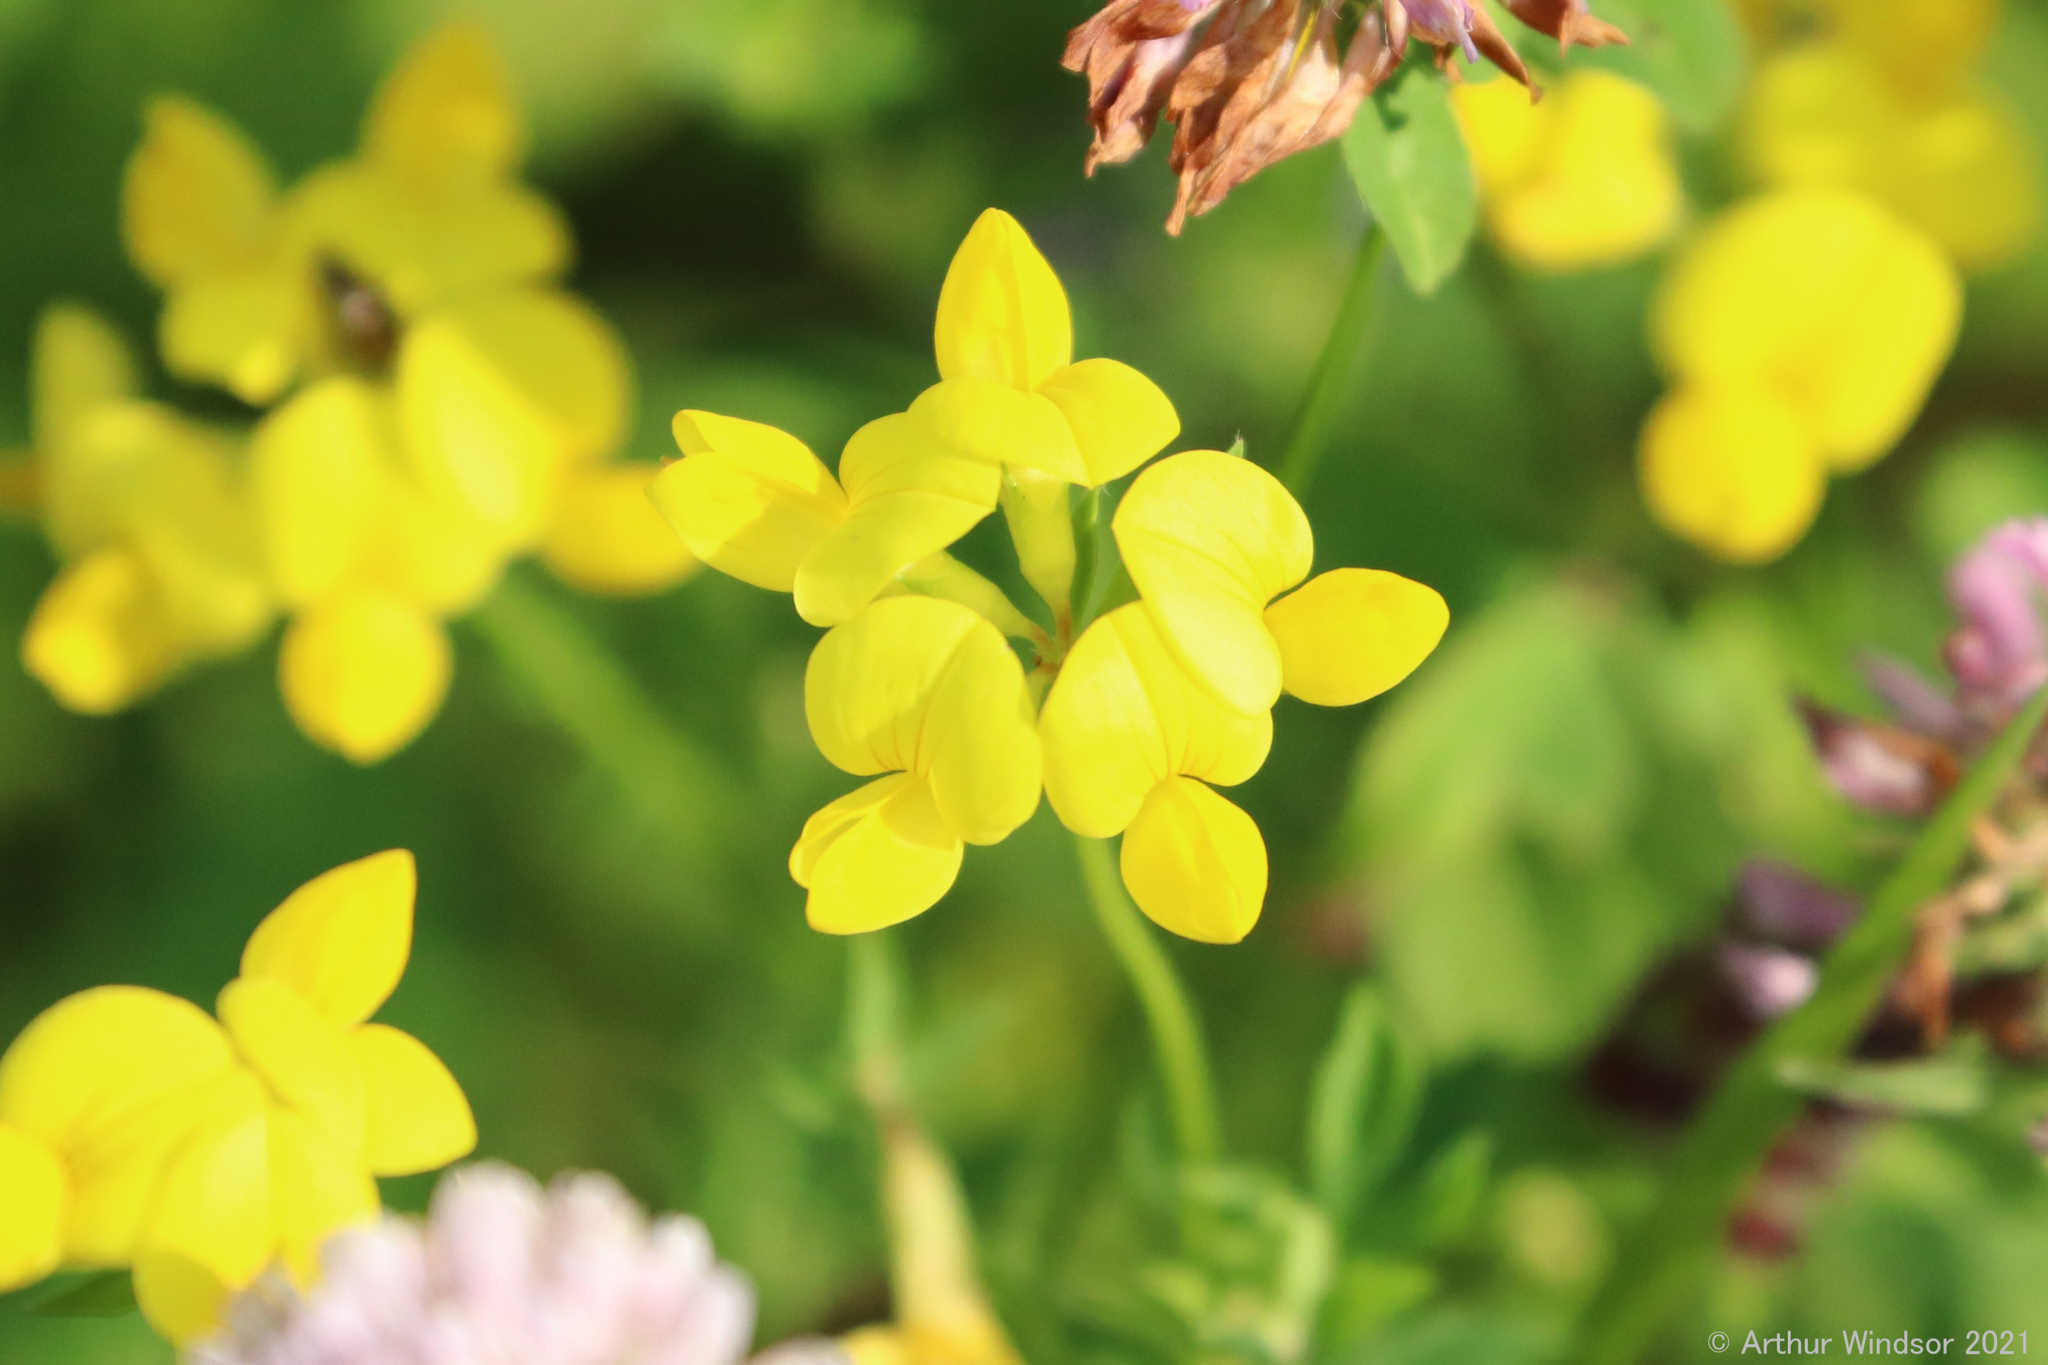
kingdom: Plantae
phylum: Tracheophyta
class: Magnoliopsida
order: Fabales
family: Fabaceae
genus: Lotus
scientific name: Lotus corniculatus
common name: Common bird's-foot-trefoil
